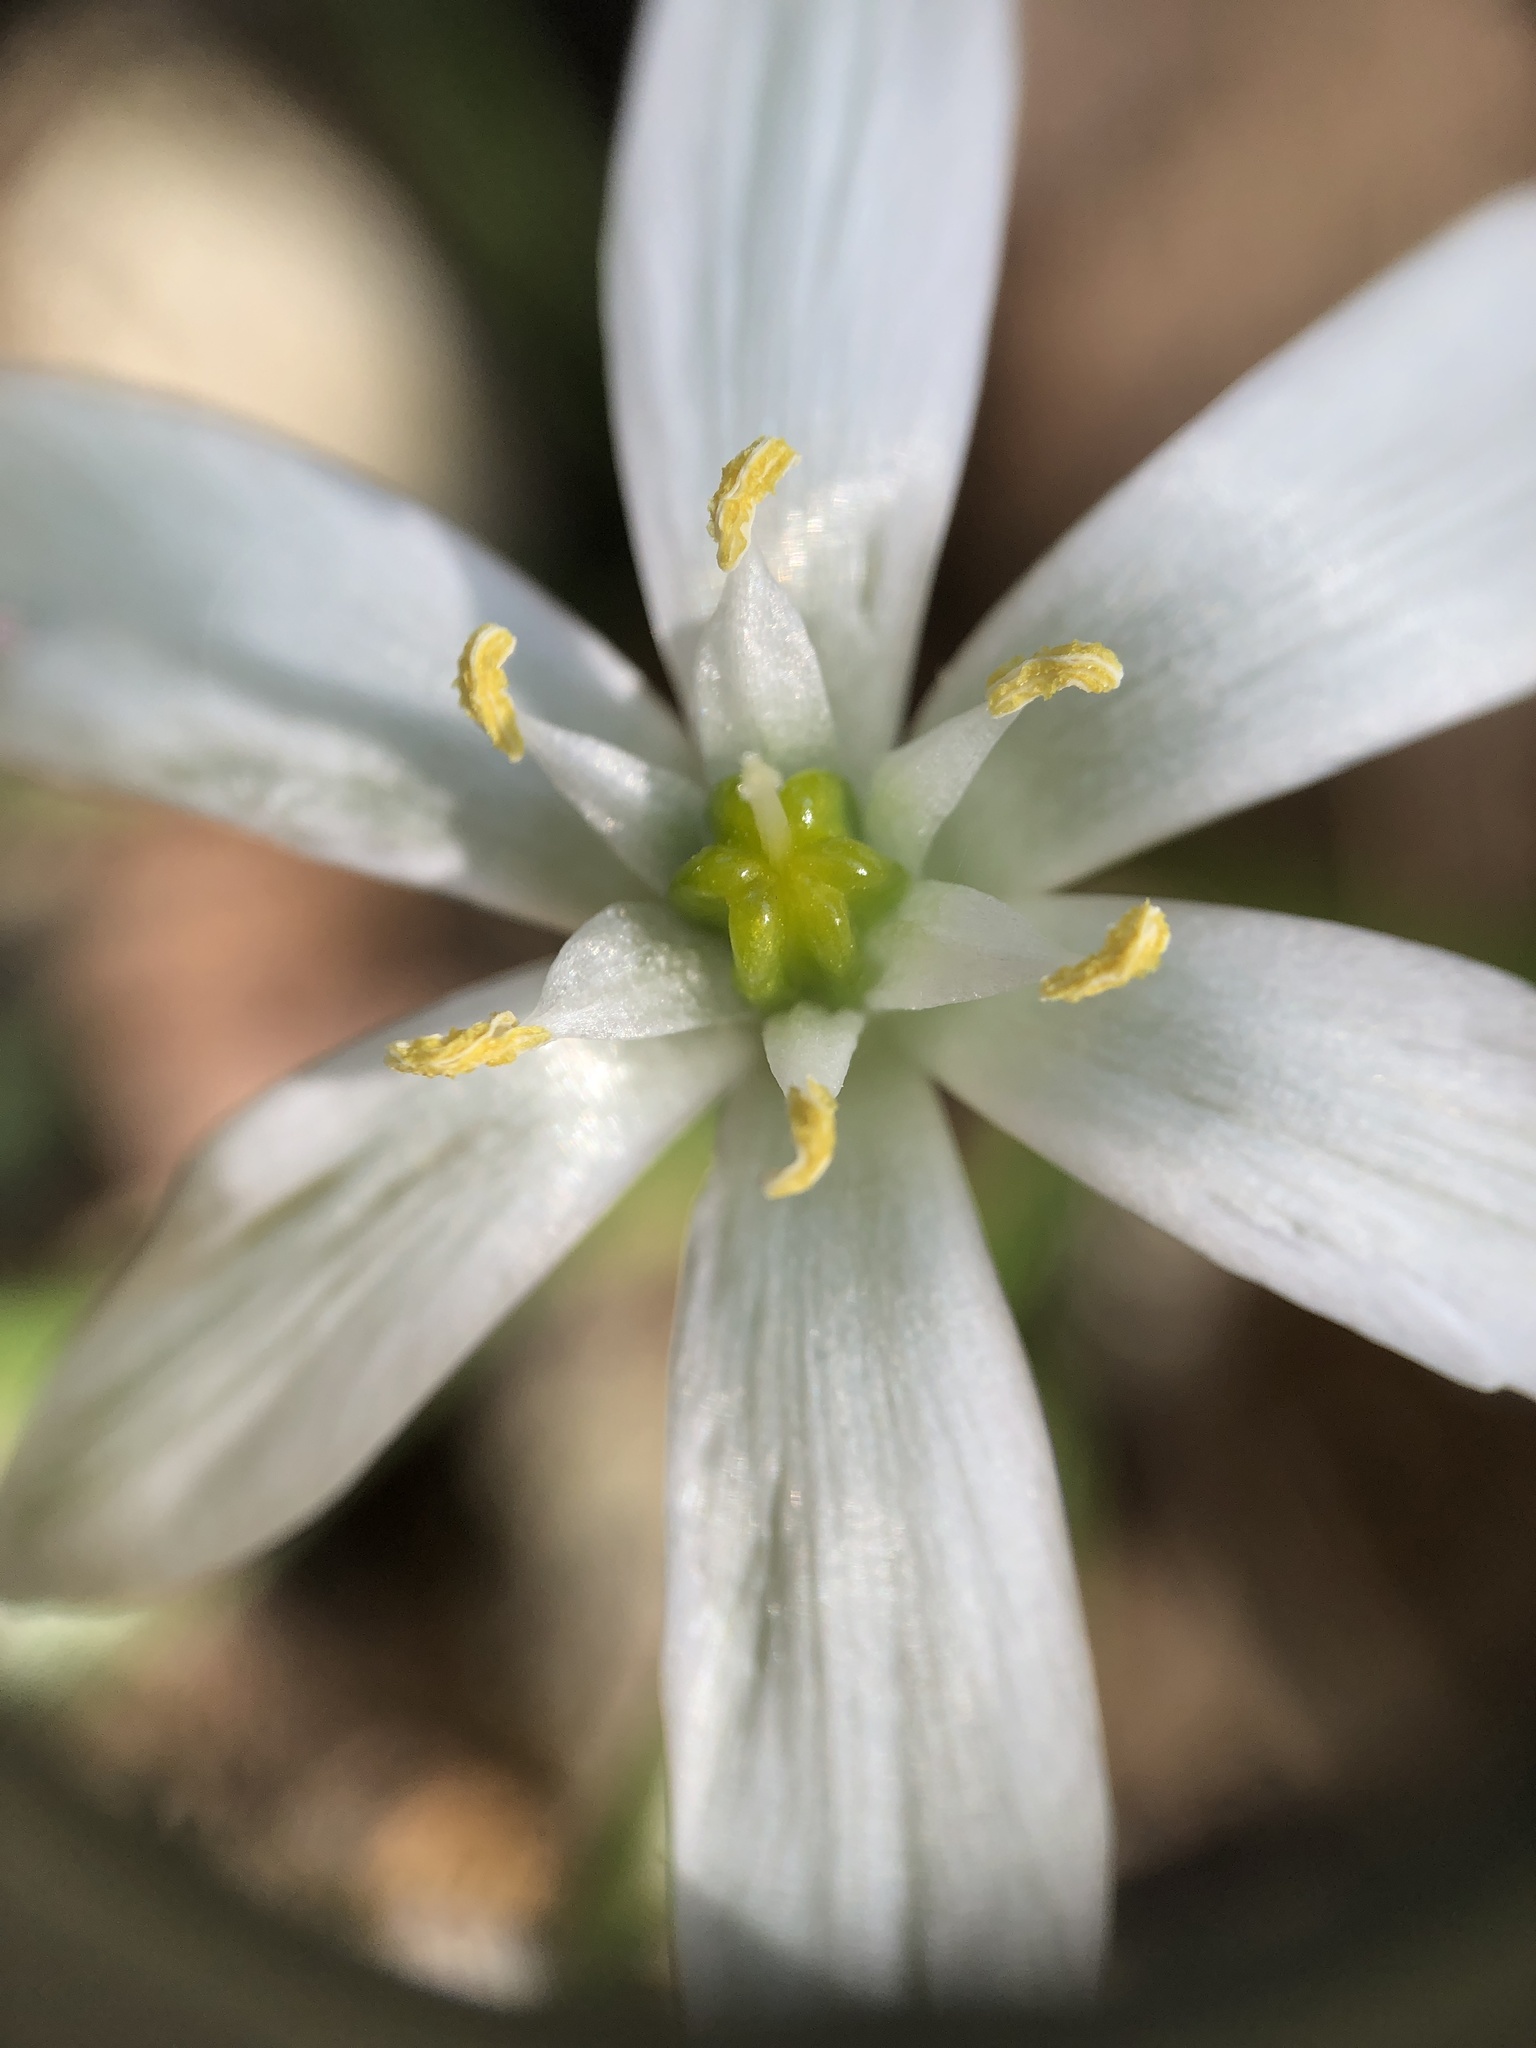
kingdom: Plantae
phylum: Tracheophyta
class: Liliopsida
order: Asparagales
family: Asparagaceae
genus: Ornithogalum
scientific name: Ornithogalum umbellatum
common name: Garden star-of-bethlehem
